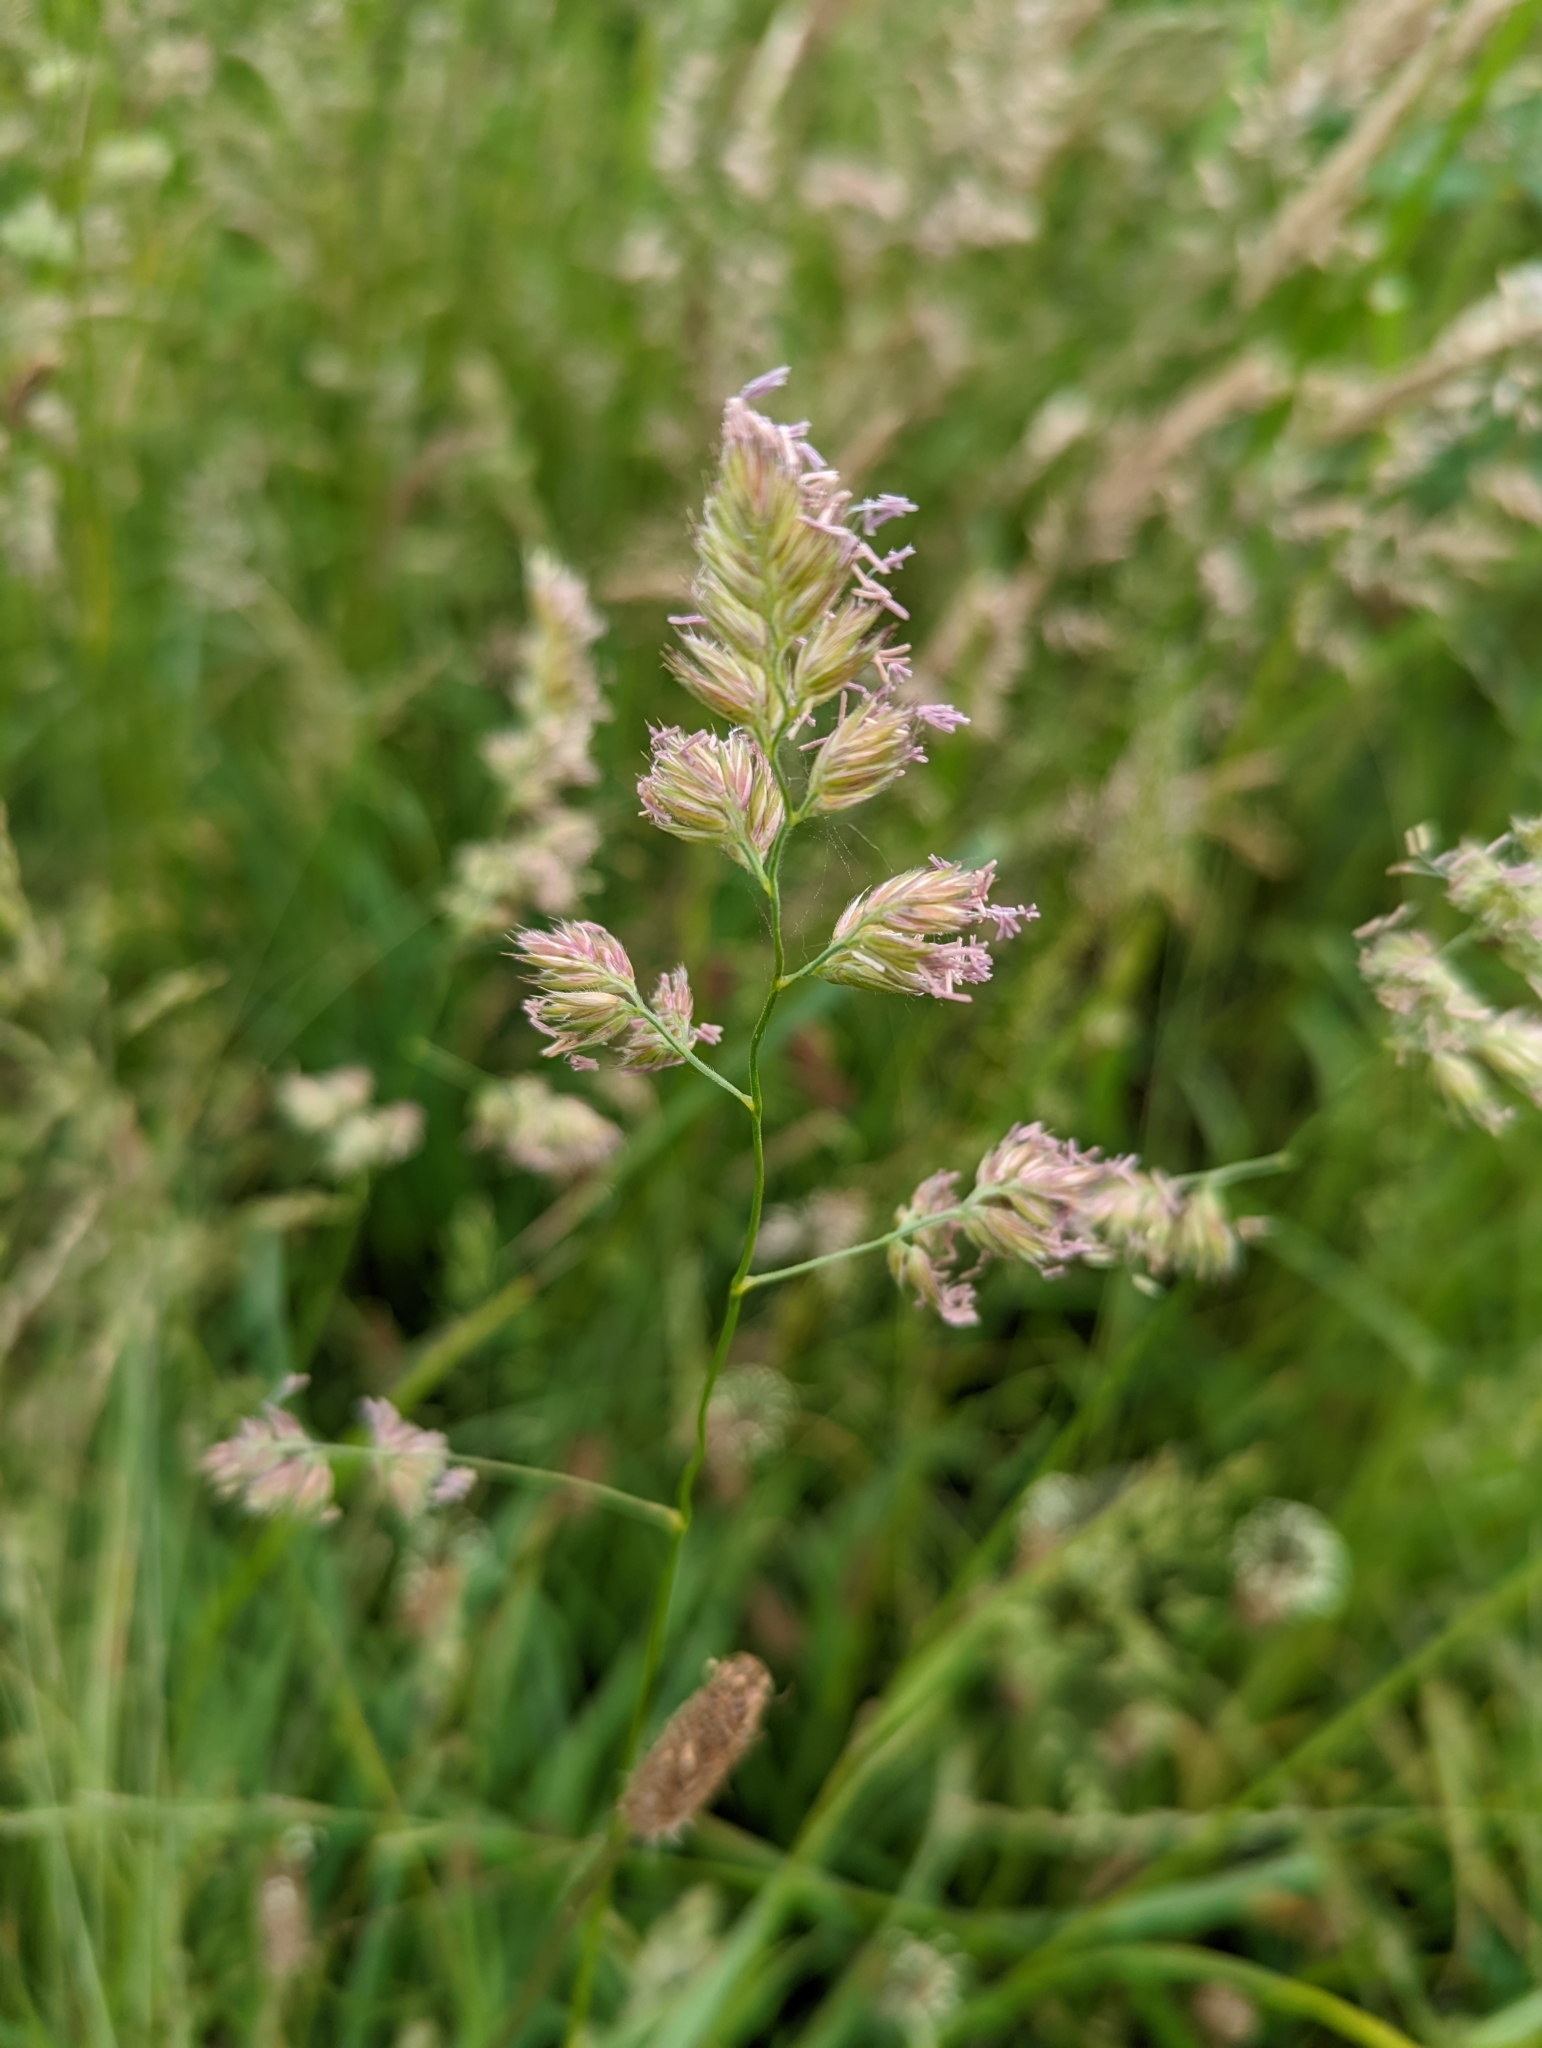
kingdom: Plantae
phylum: Tracheophyta
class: Liliopsida
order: Poales
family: Poaceae
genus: Dactylis
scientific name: Dactylis glomerata
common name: Orchardgrass
